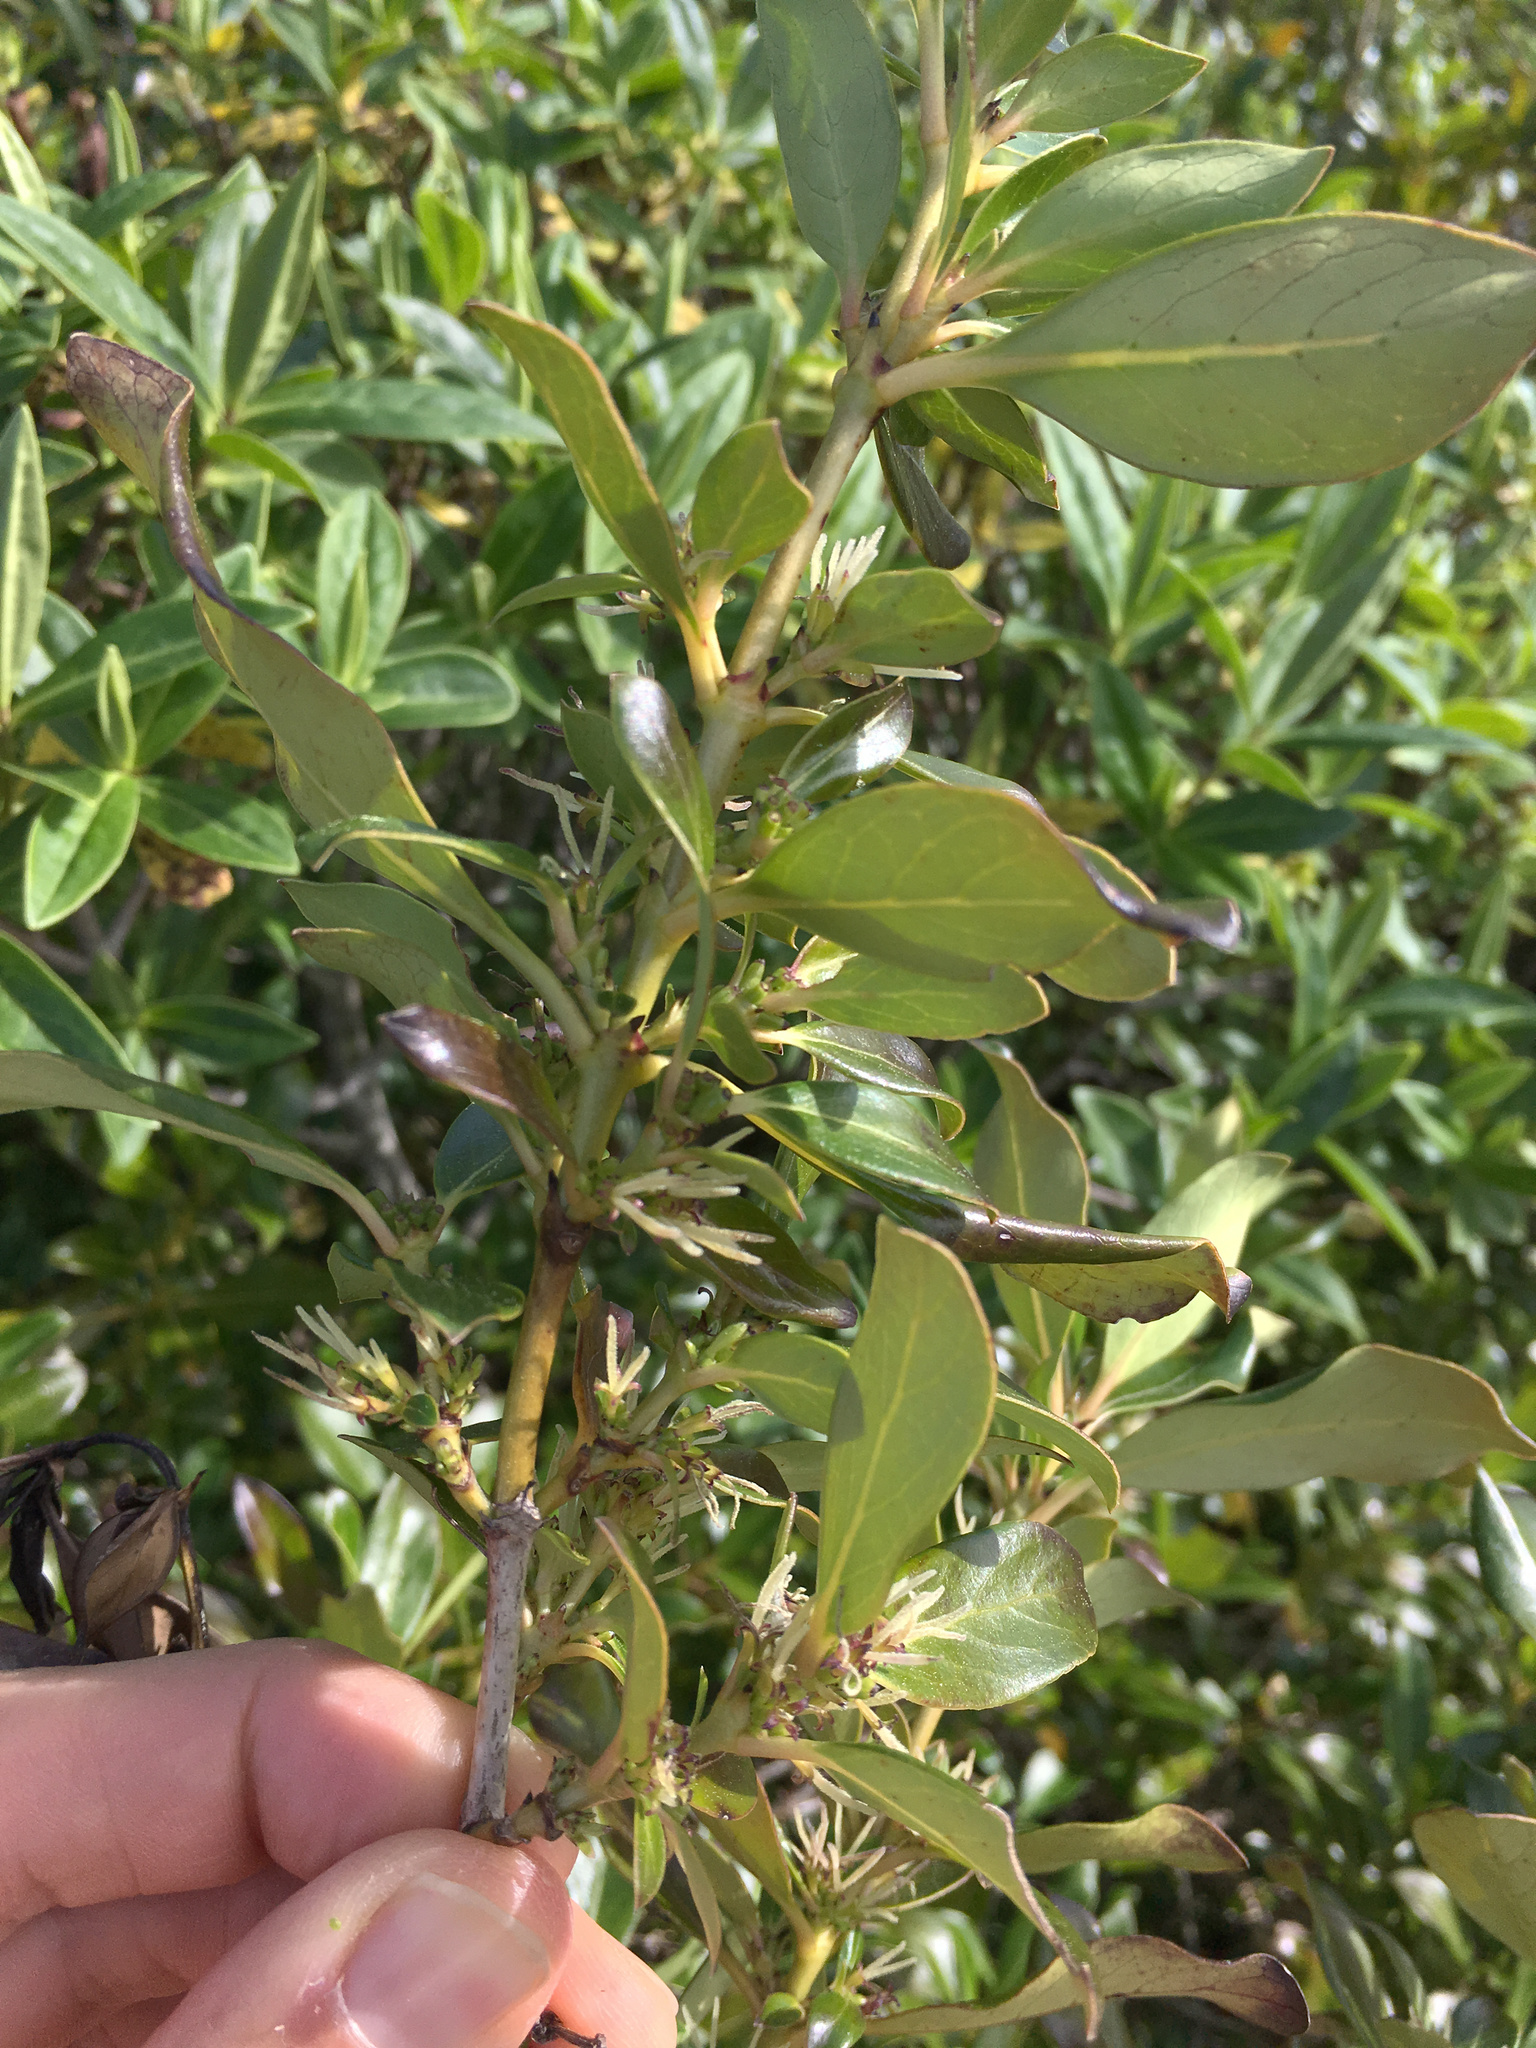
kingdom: Plantae
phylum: Tracheophyta
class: Magnoliopsida
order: Gentianales
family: Rubiaceae
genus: Coprosma
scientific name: Coprosma robusta
